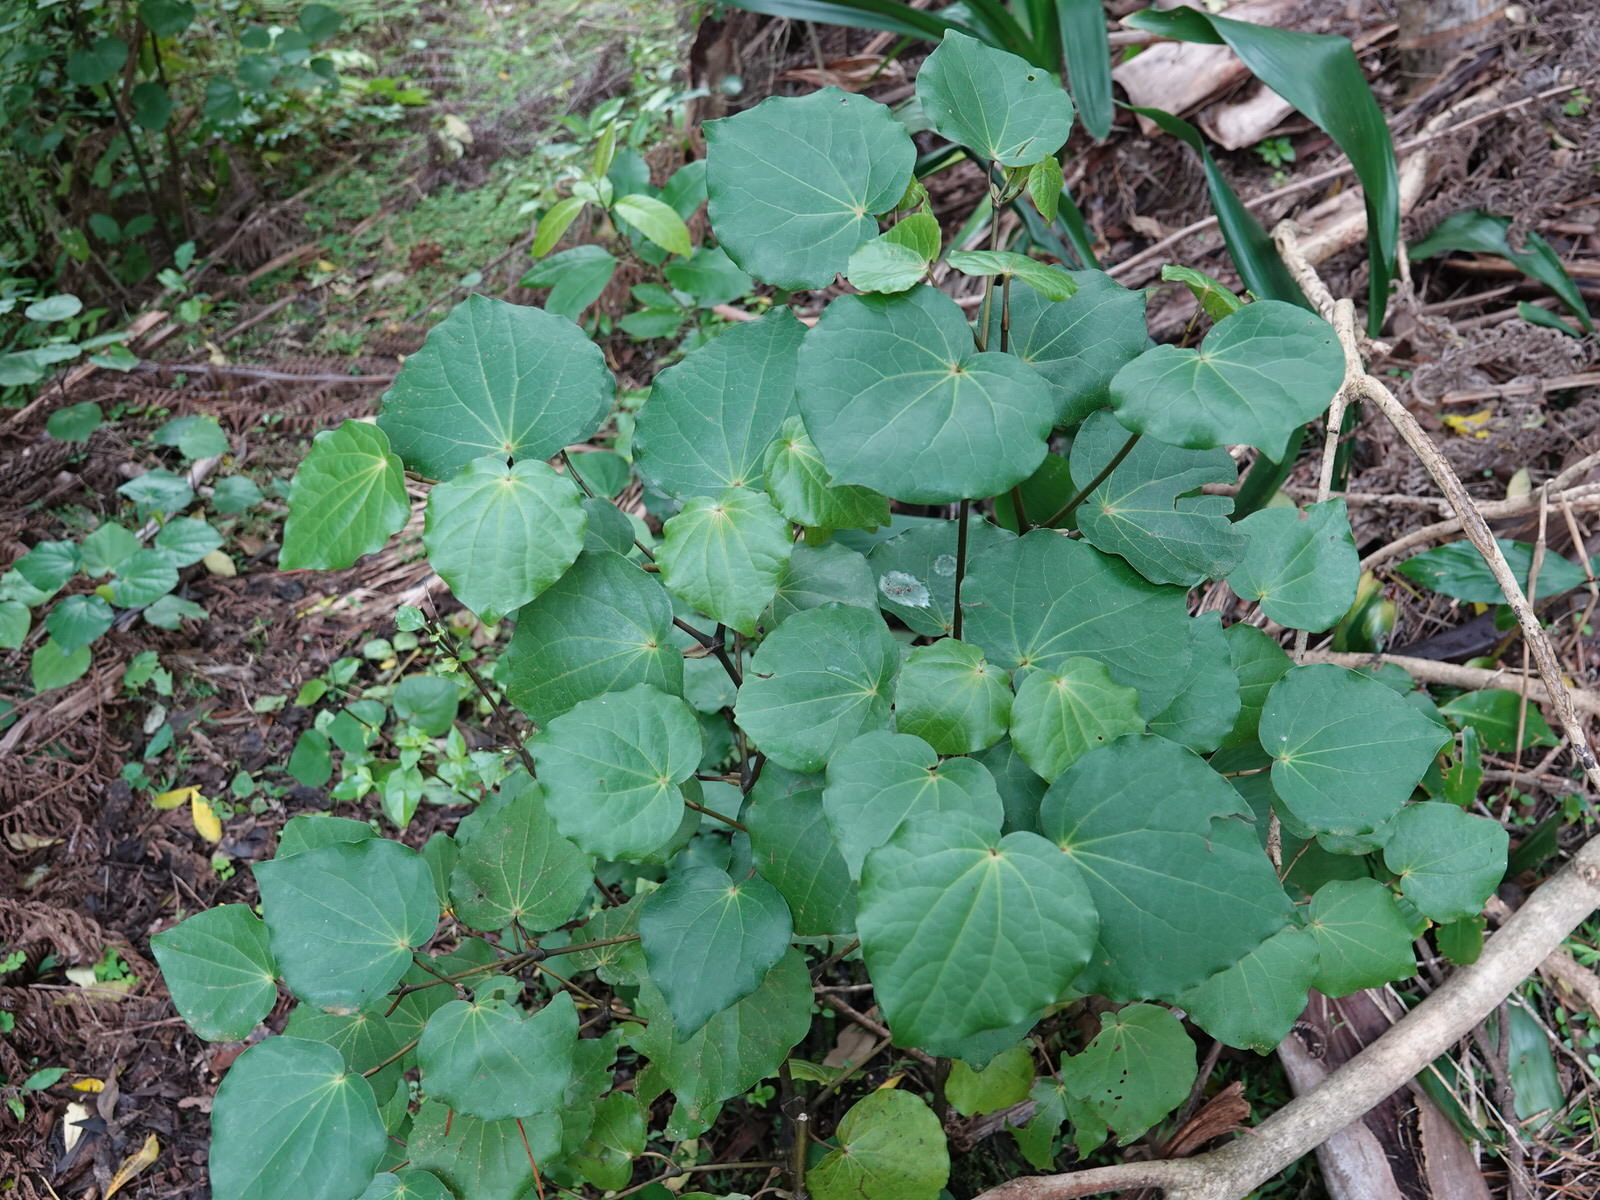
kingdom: Plantae
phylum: Tracheophyta
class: Magnoliopsida
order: Piperales
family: Piperaceae
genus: Macropiper
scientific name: Macropiper excelsum
